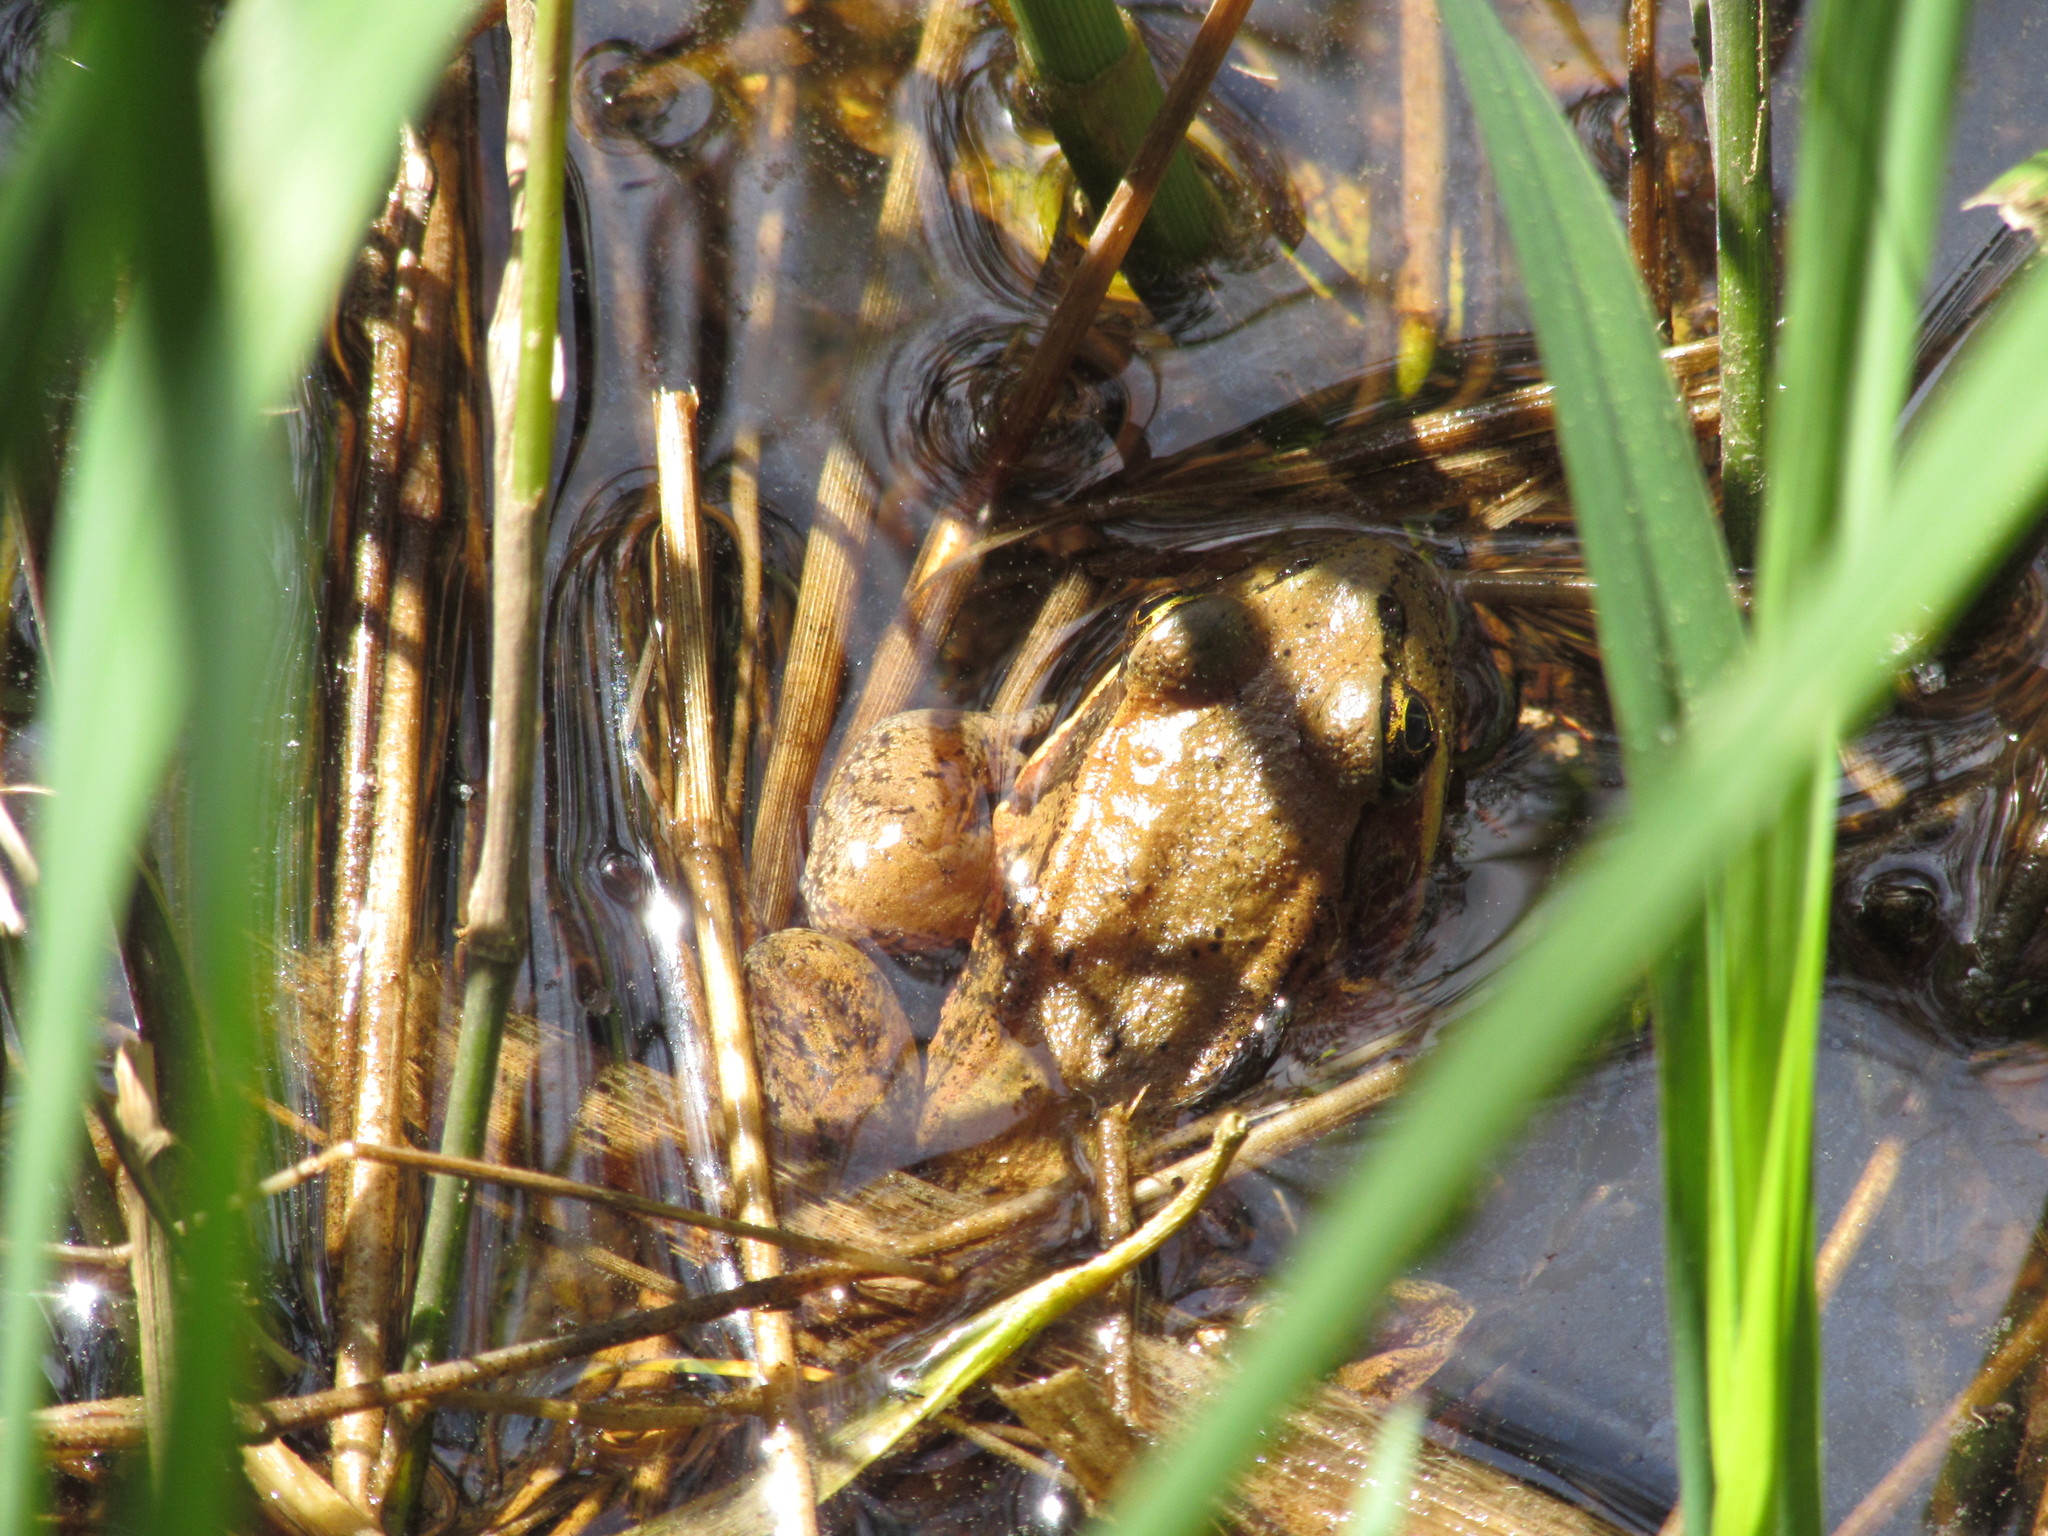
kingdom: Animalia
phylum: Chordata
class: Amphibia
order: Anura
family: Ranidae
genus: Rana
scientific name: Rana aurora
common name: Red-legged frog
